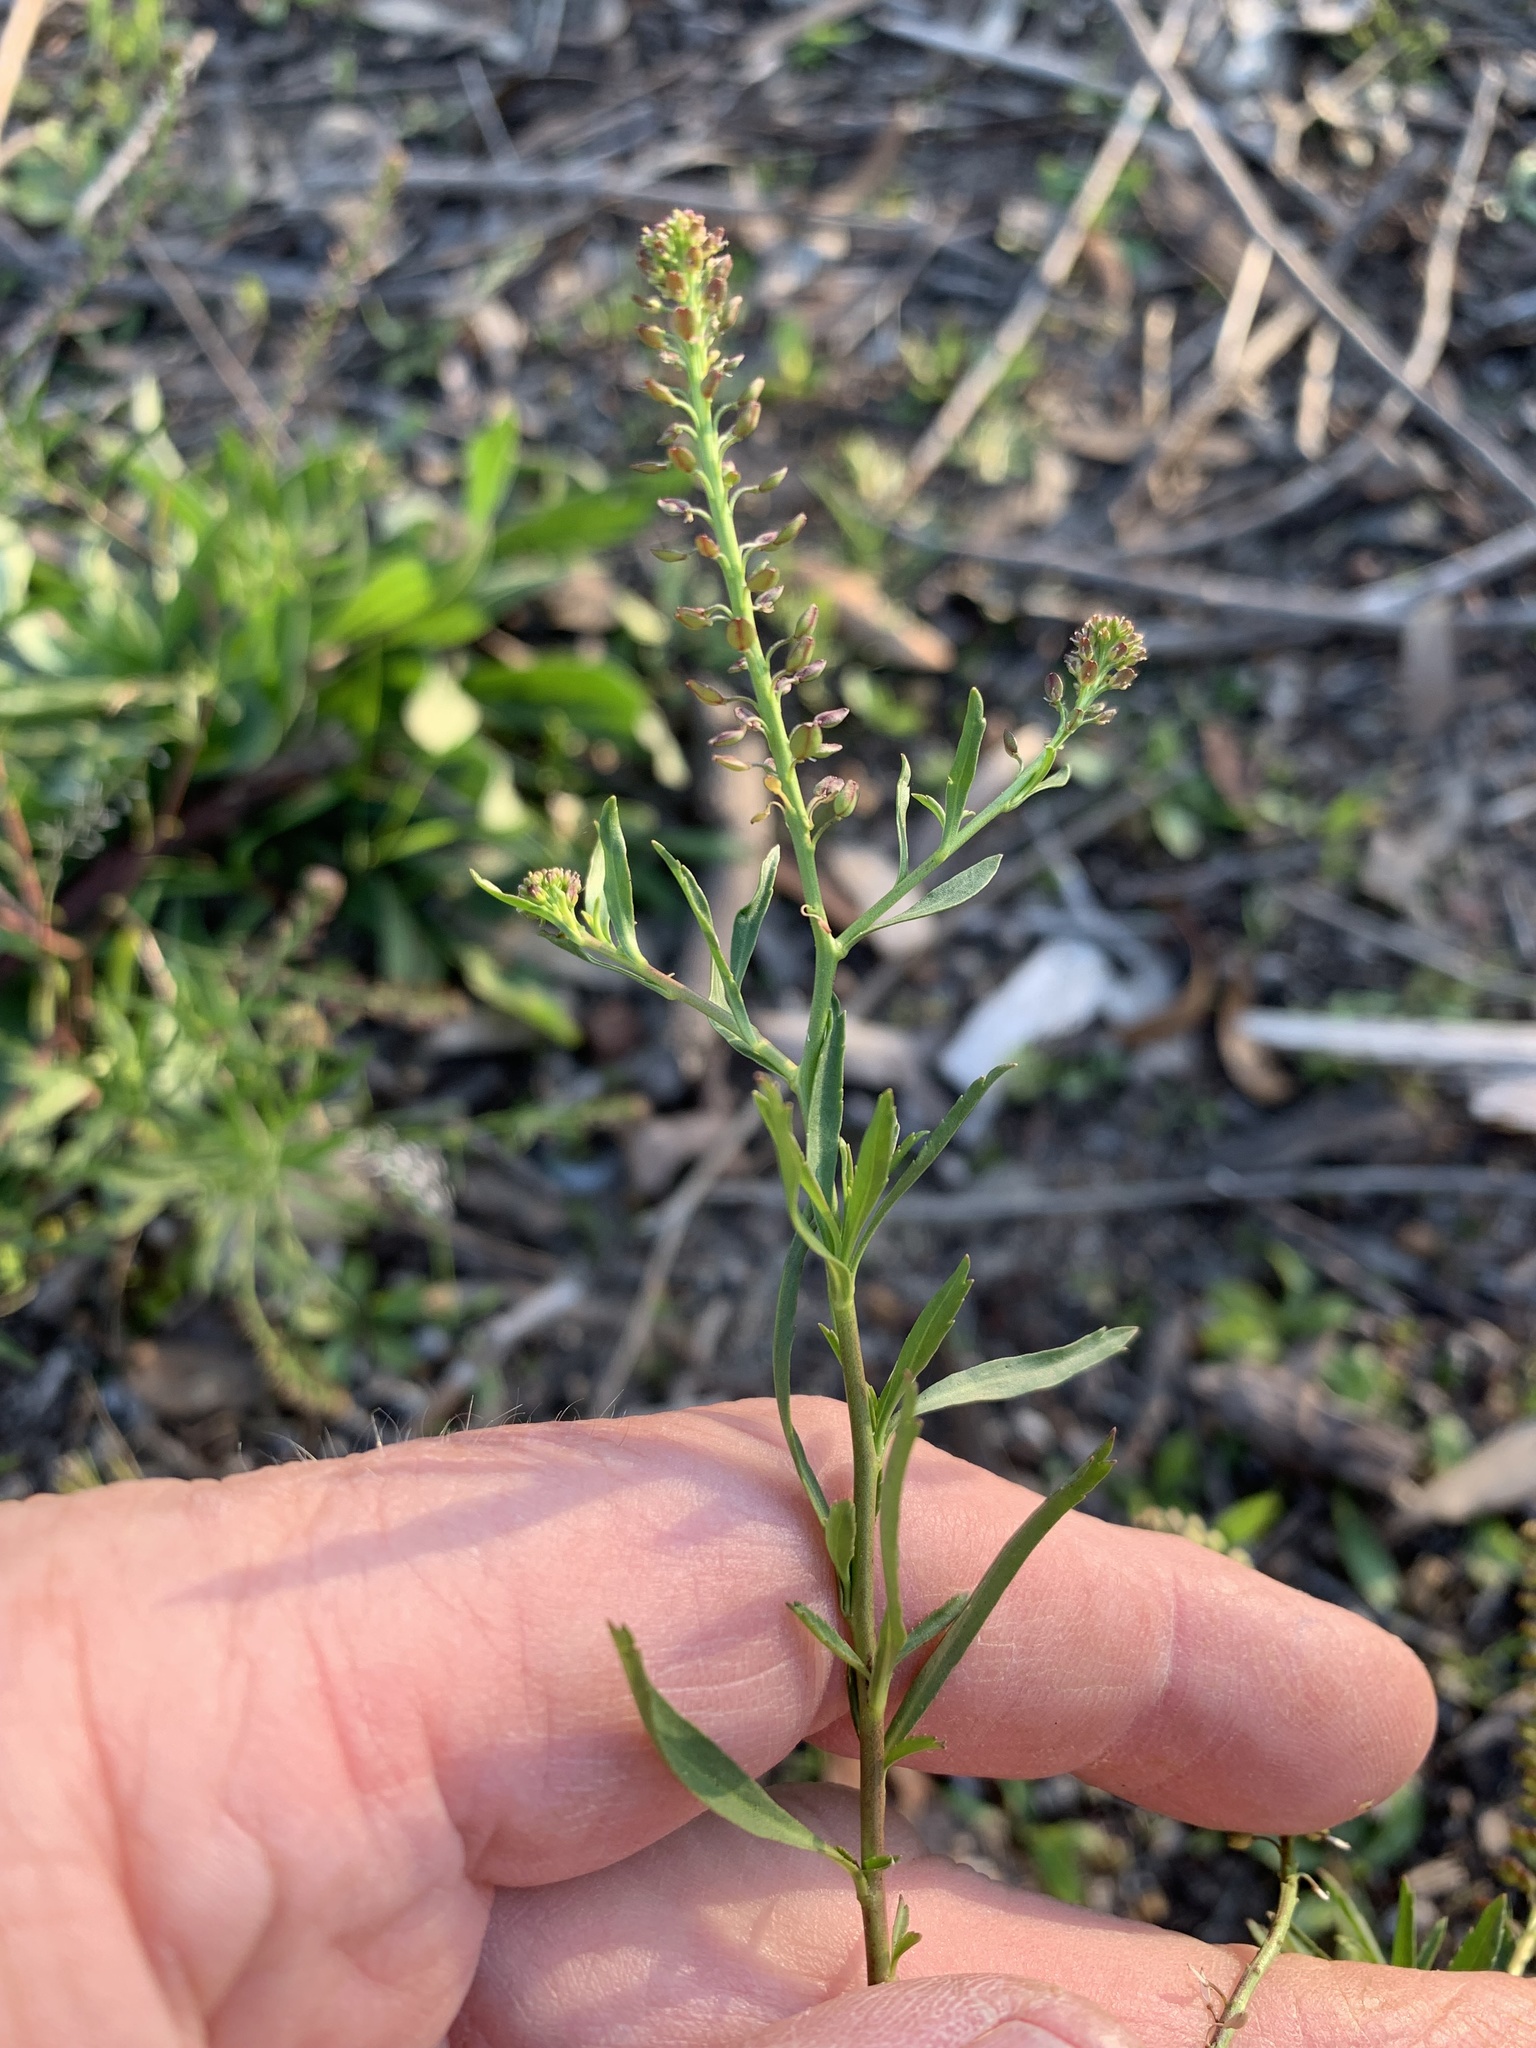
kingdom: Plantae
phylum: Tracheophyta
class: Magnoliopsida
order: Brassicales
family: Brassicaceae
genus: Lepidium
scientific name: Lepidium africanum
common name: African pepperwort
